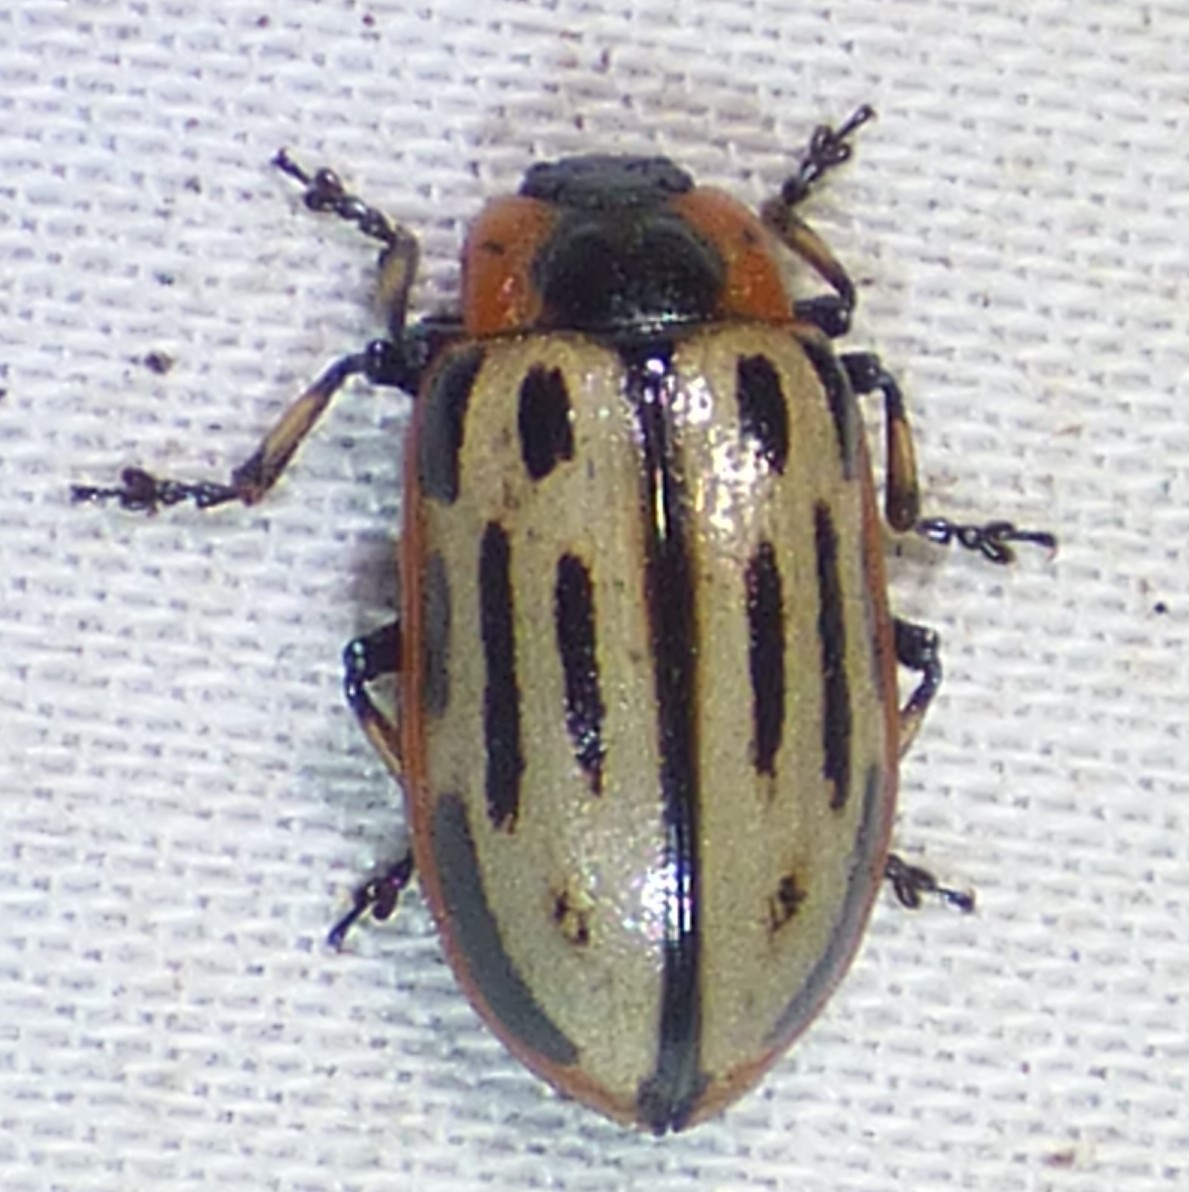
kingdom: Animalia
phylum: Arthropoda
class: Insecta
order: Coleoptera
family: Chrysomelidae
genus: Aethiopocassis
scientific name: Aethiopocassis scripta
